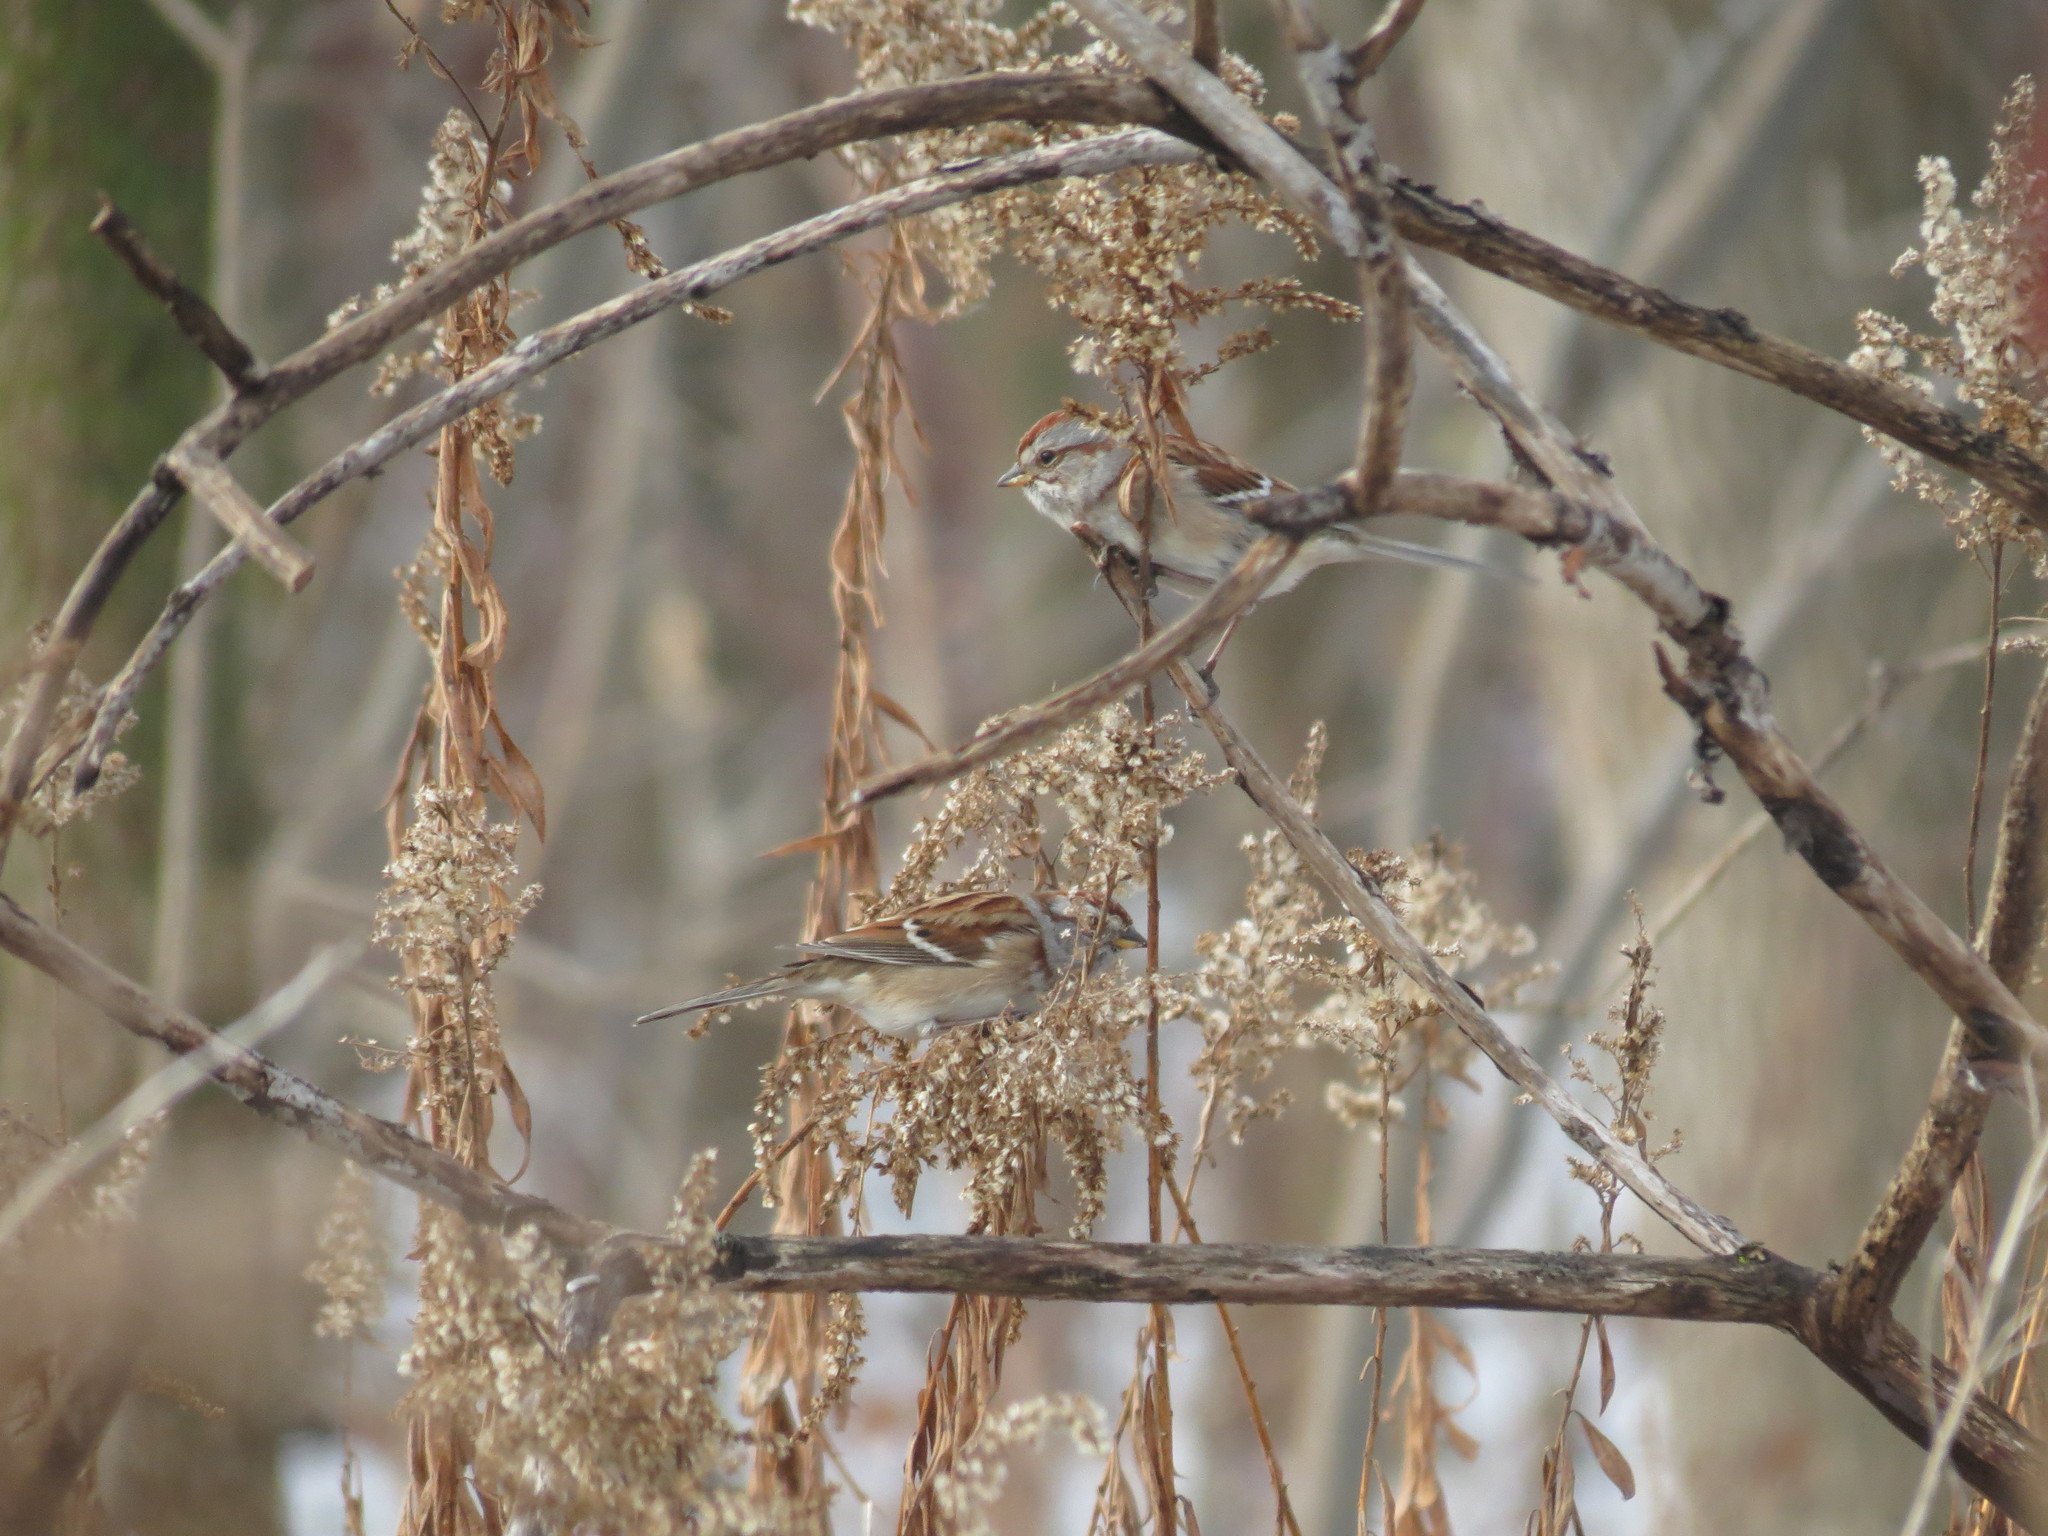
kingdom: Animalia
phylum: Chordata
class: Aves
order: Passeriformes
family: Passerellidae
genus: Spizelloides
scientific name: Spizelloides arborea
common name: American tree sparrow
